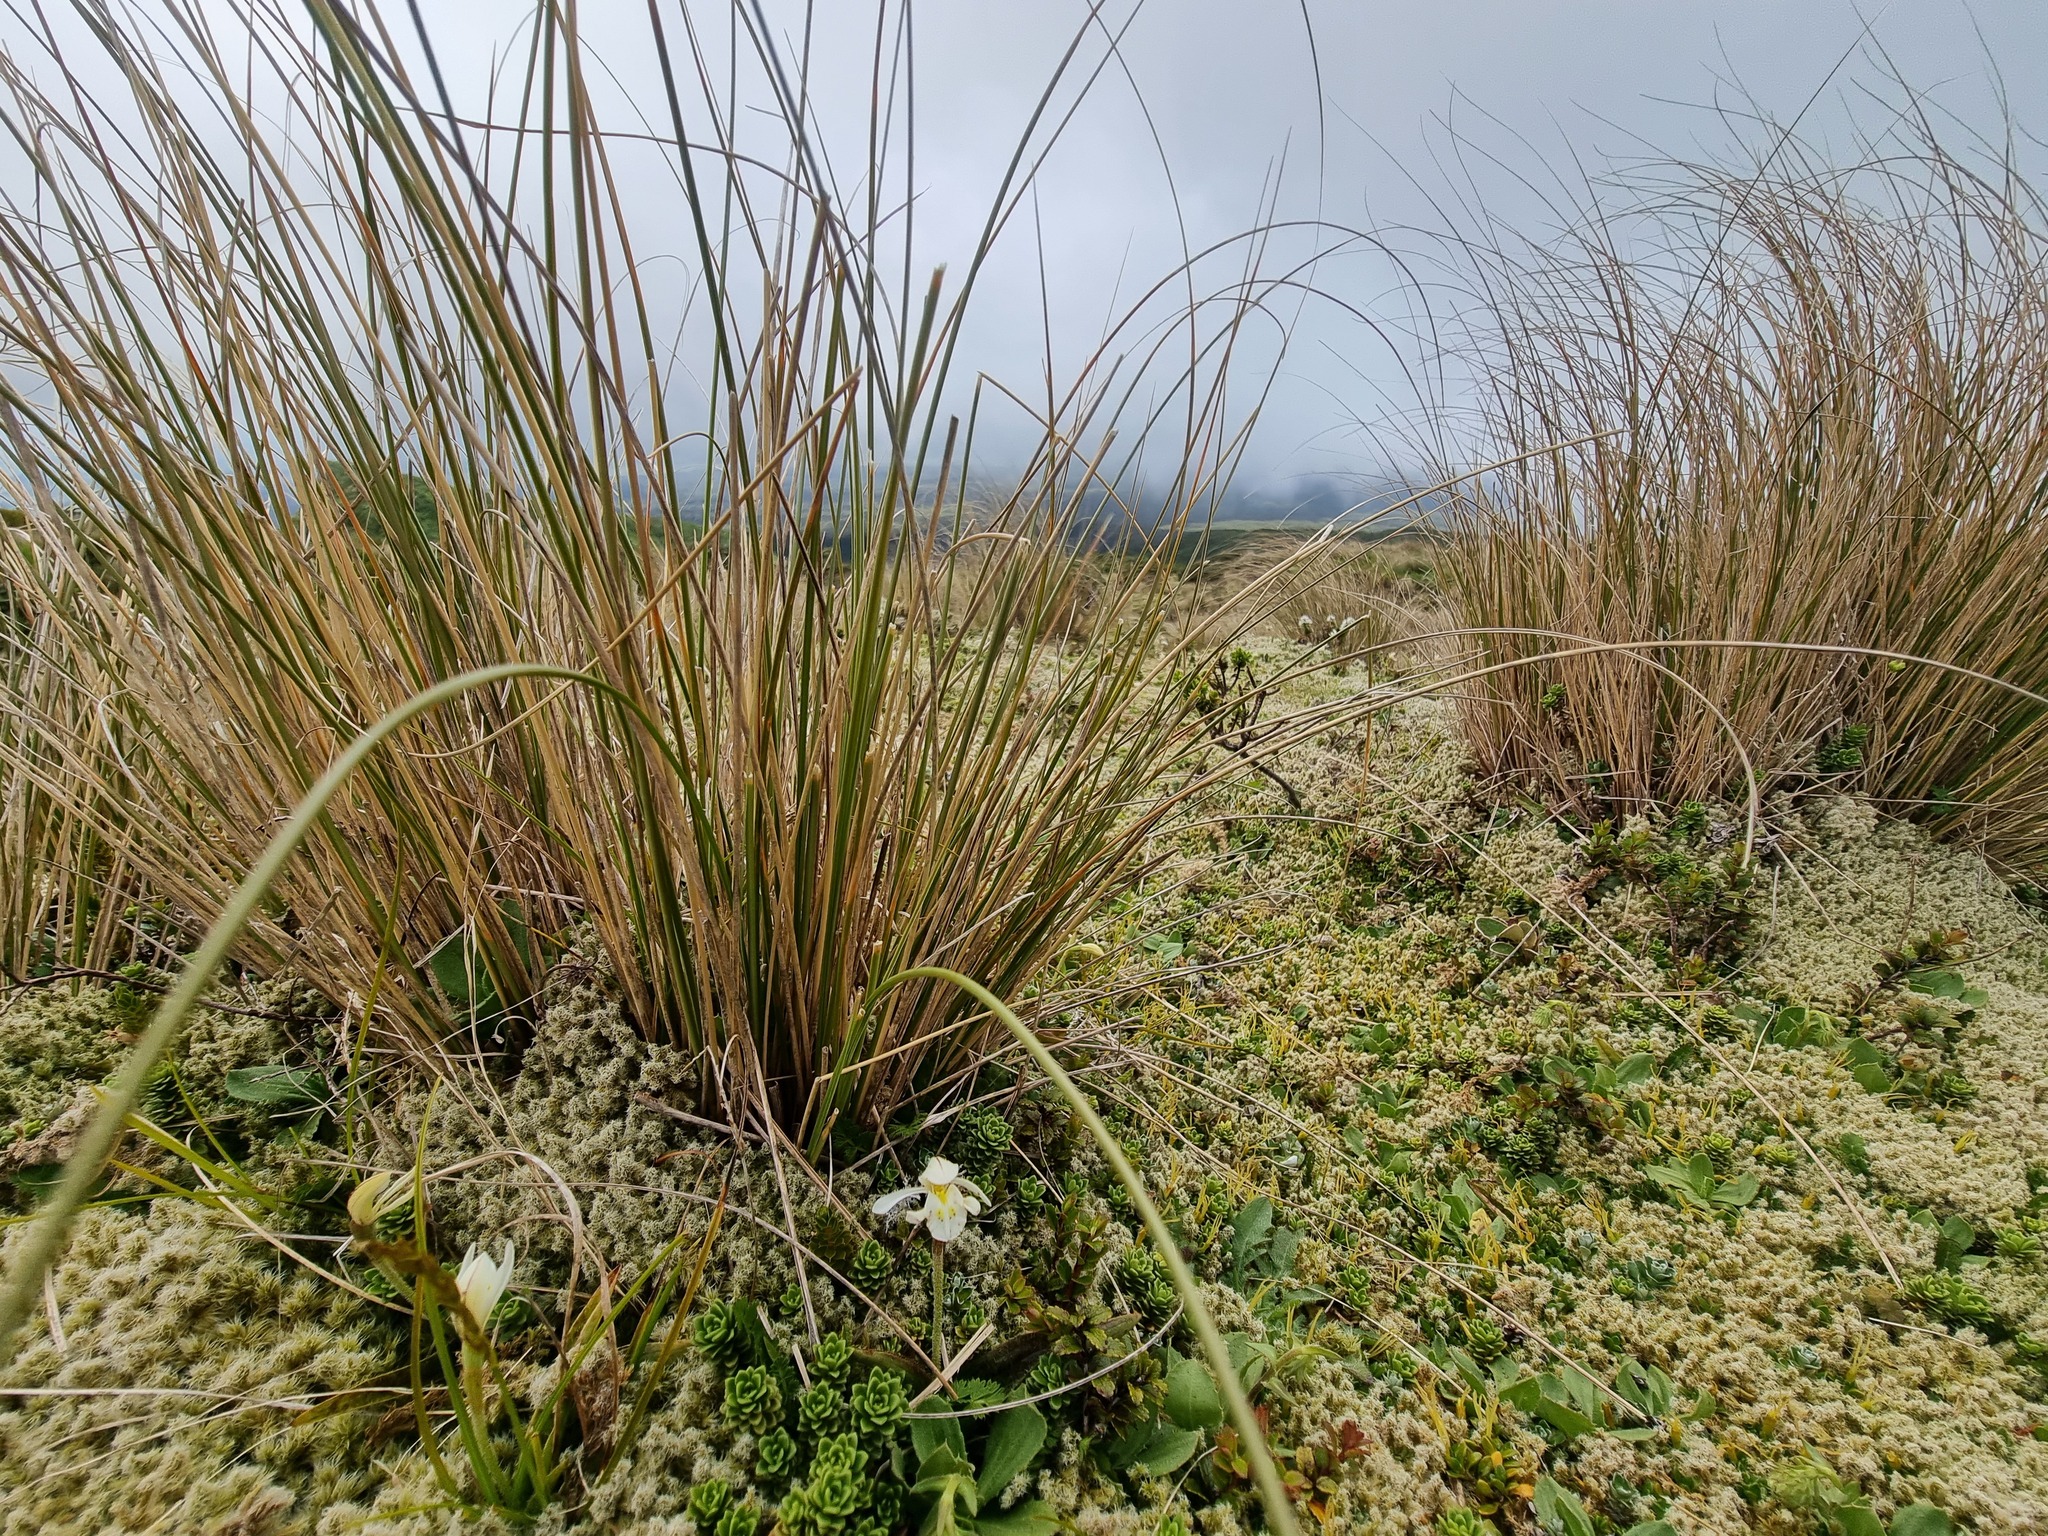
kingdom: Plantae
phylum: Tracheophyta
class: Liliopsida
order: Asparagales
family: Orchidaceae
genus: Aporostylis
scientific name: Aporostylis bifolia
